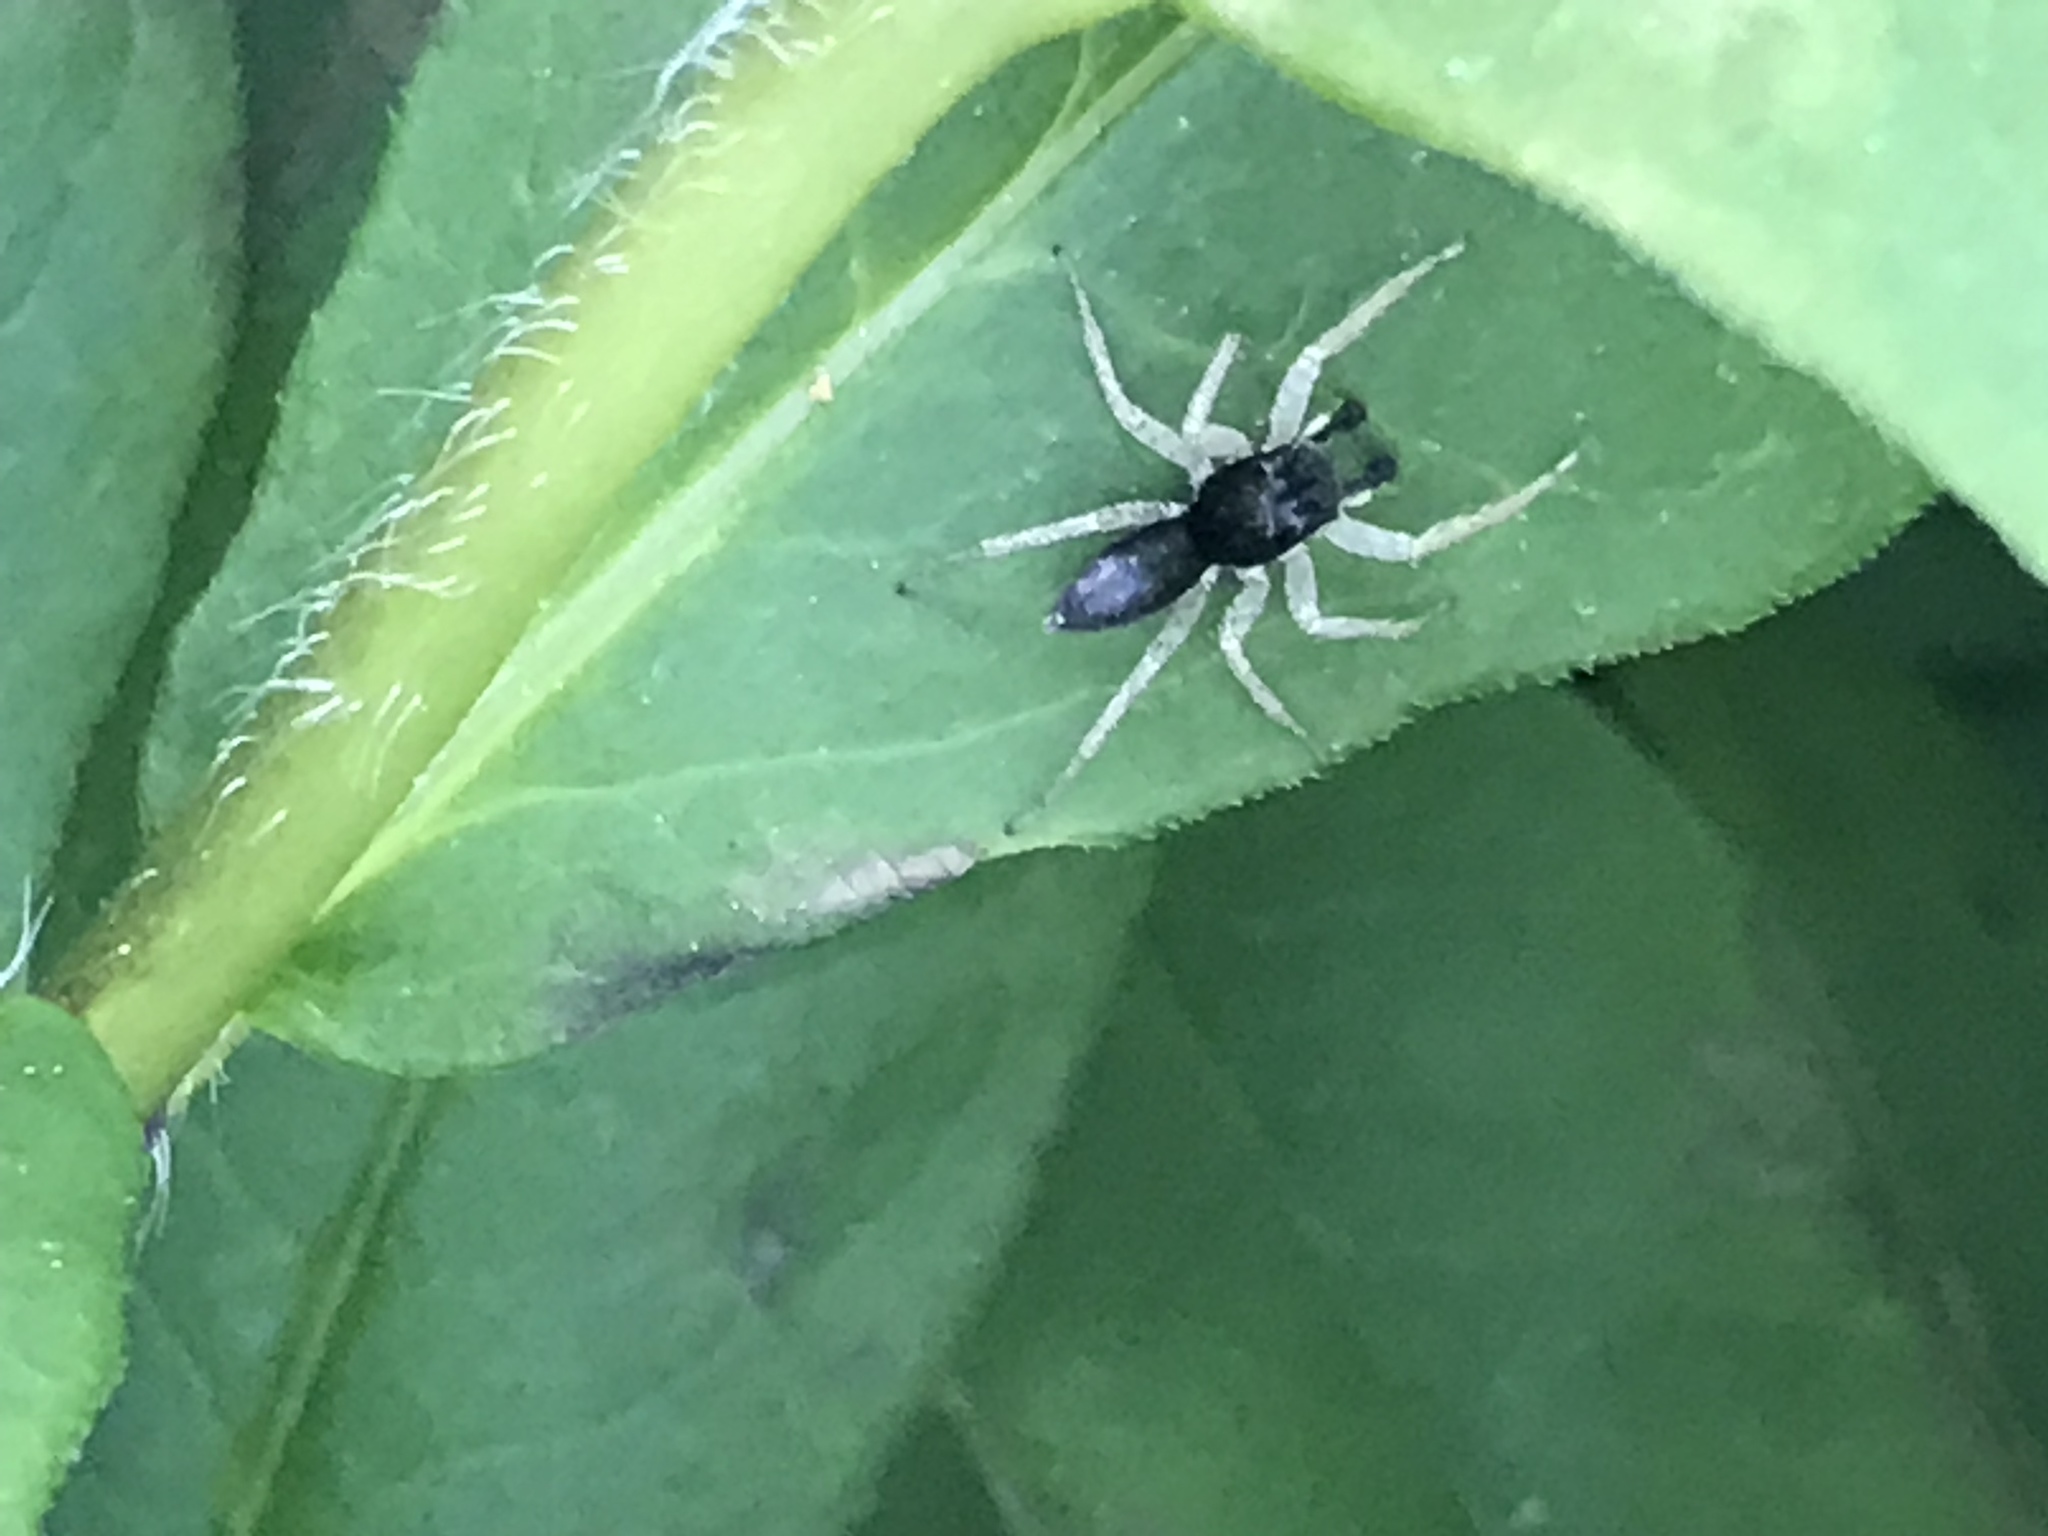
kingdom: Animalia
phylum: Arthropoda
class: Arachnida
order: Araneae
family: Salticidae
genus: Maevia
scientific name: Maevia inclemens
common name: Dimorphic jumper
